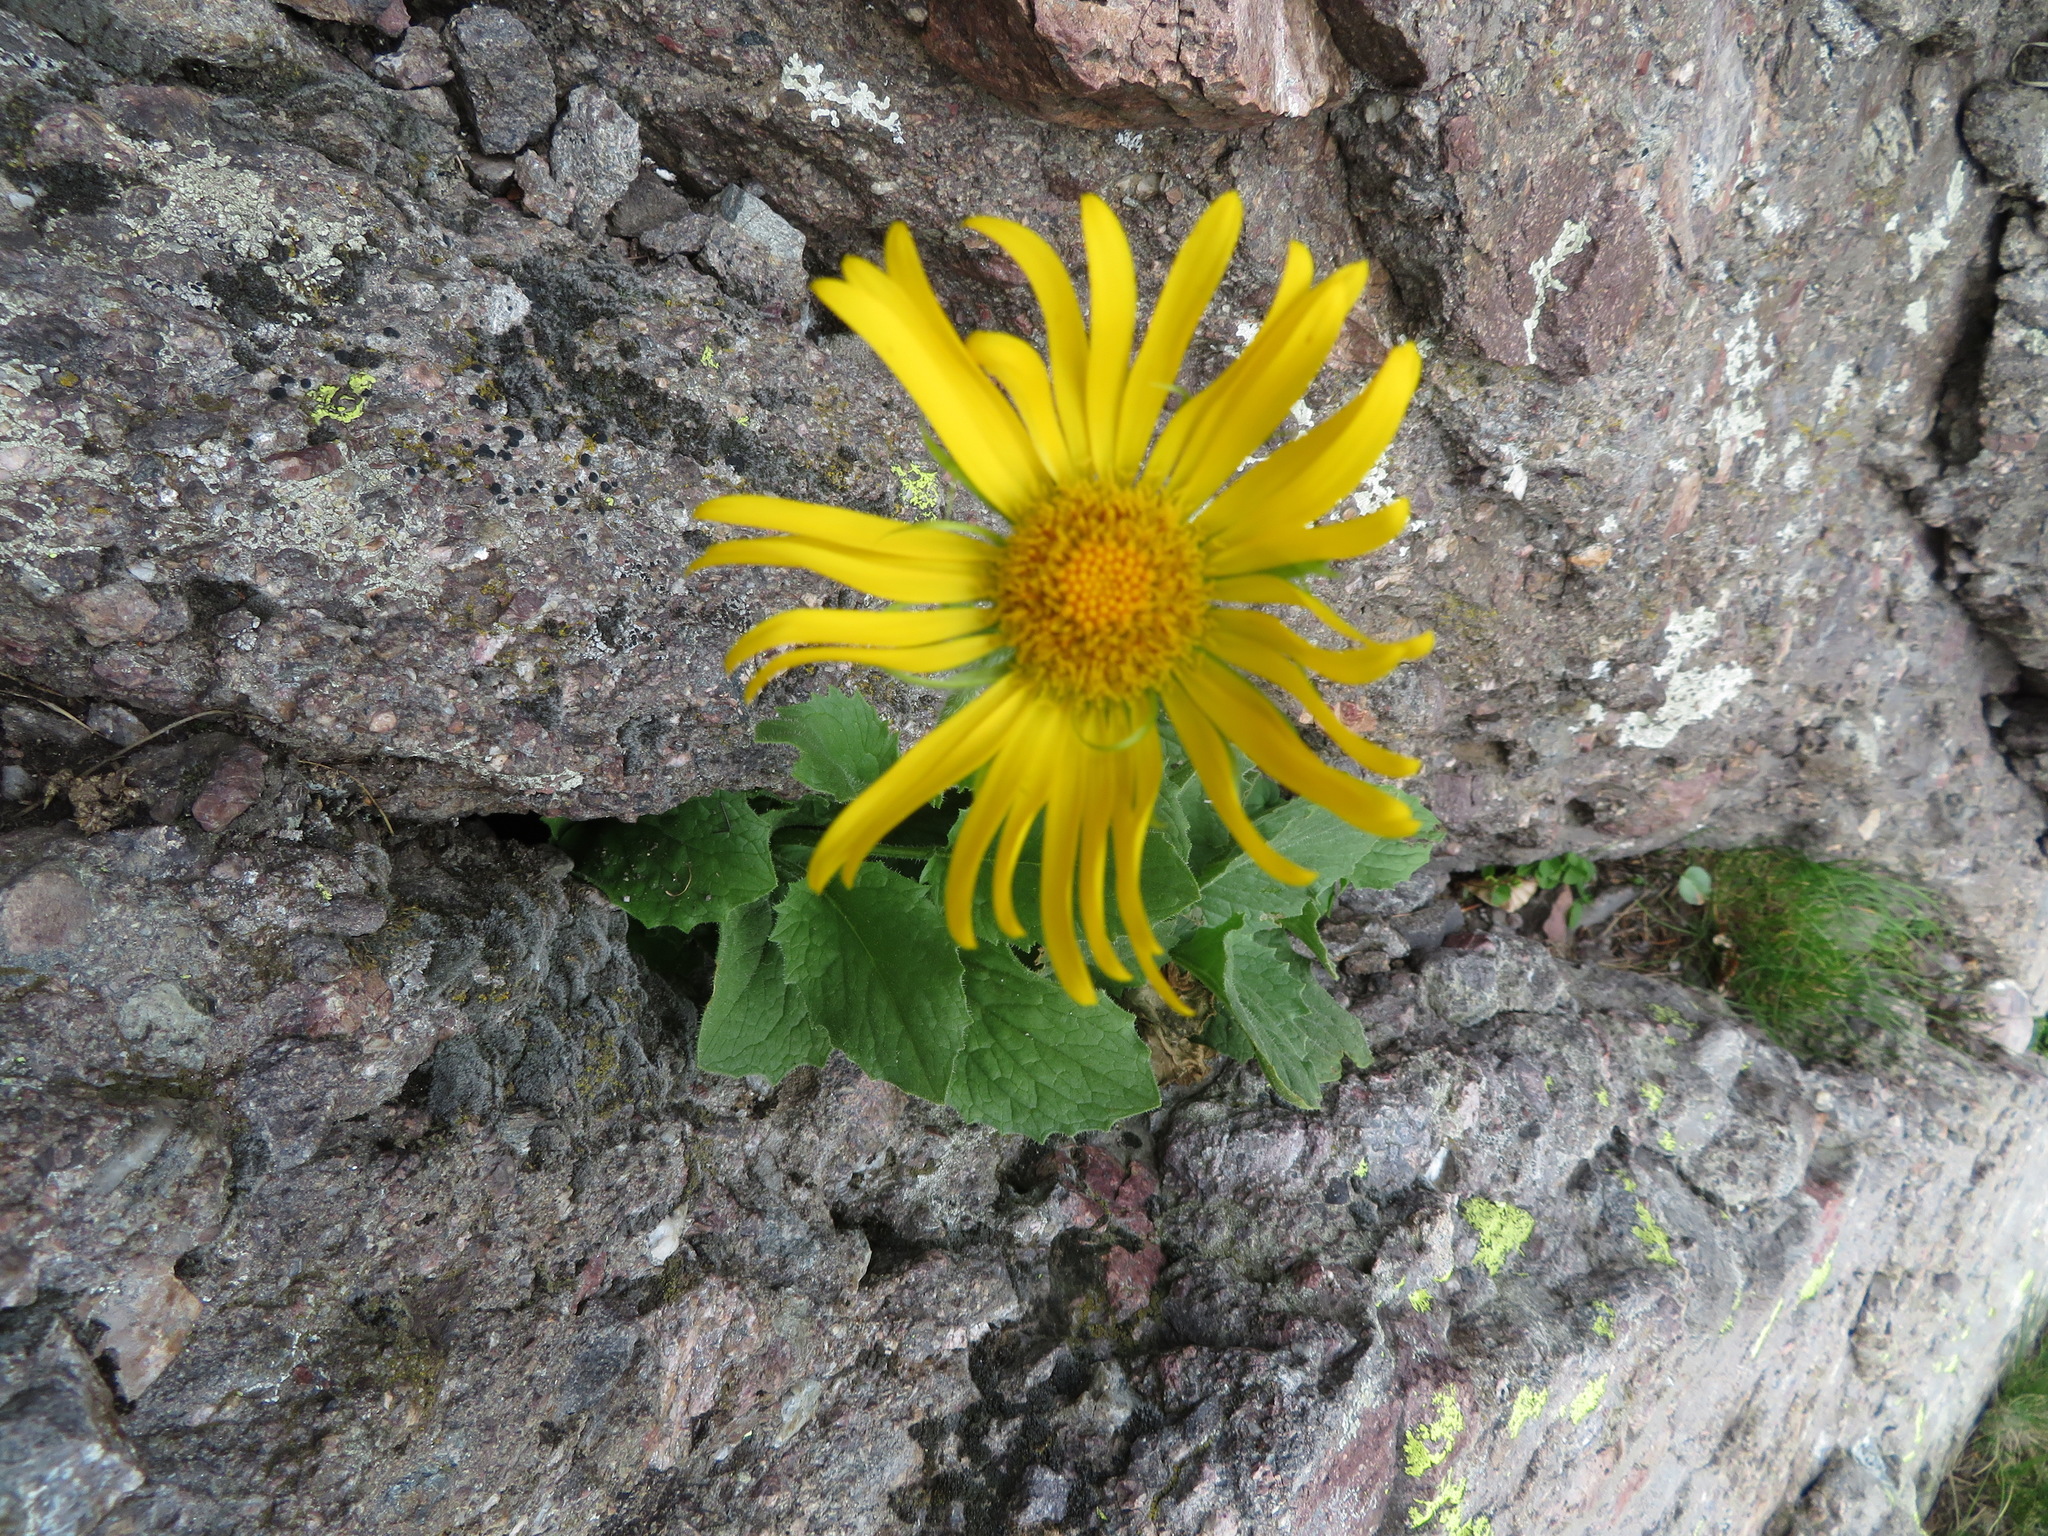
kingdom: Plantae
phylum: Tracheophyta
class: Magnoliopsida
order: Asterales
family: Asteraceae
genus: Doronicum
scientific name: Doronicum grandiflorum
